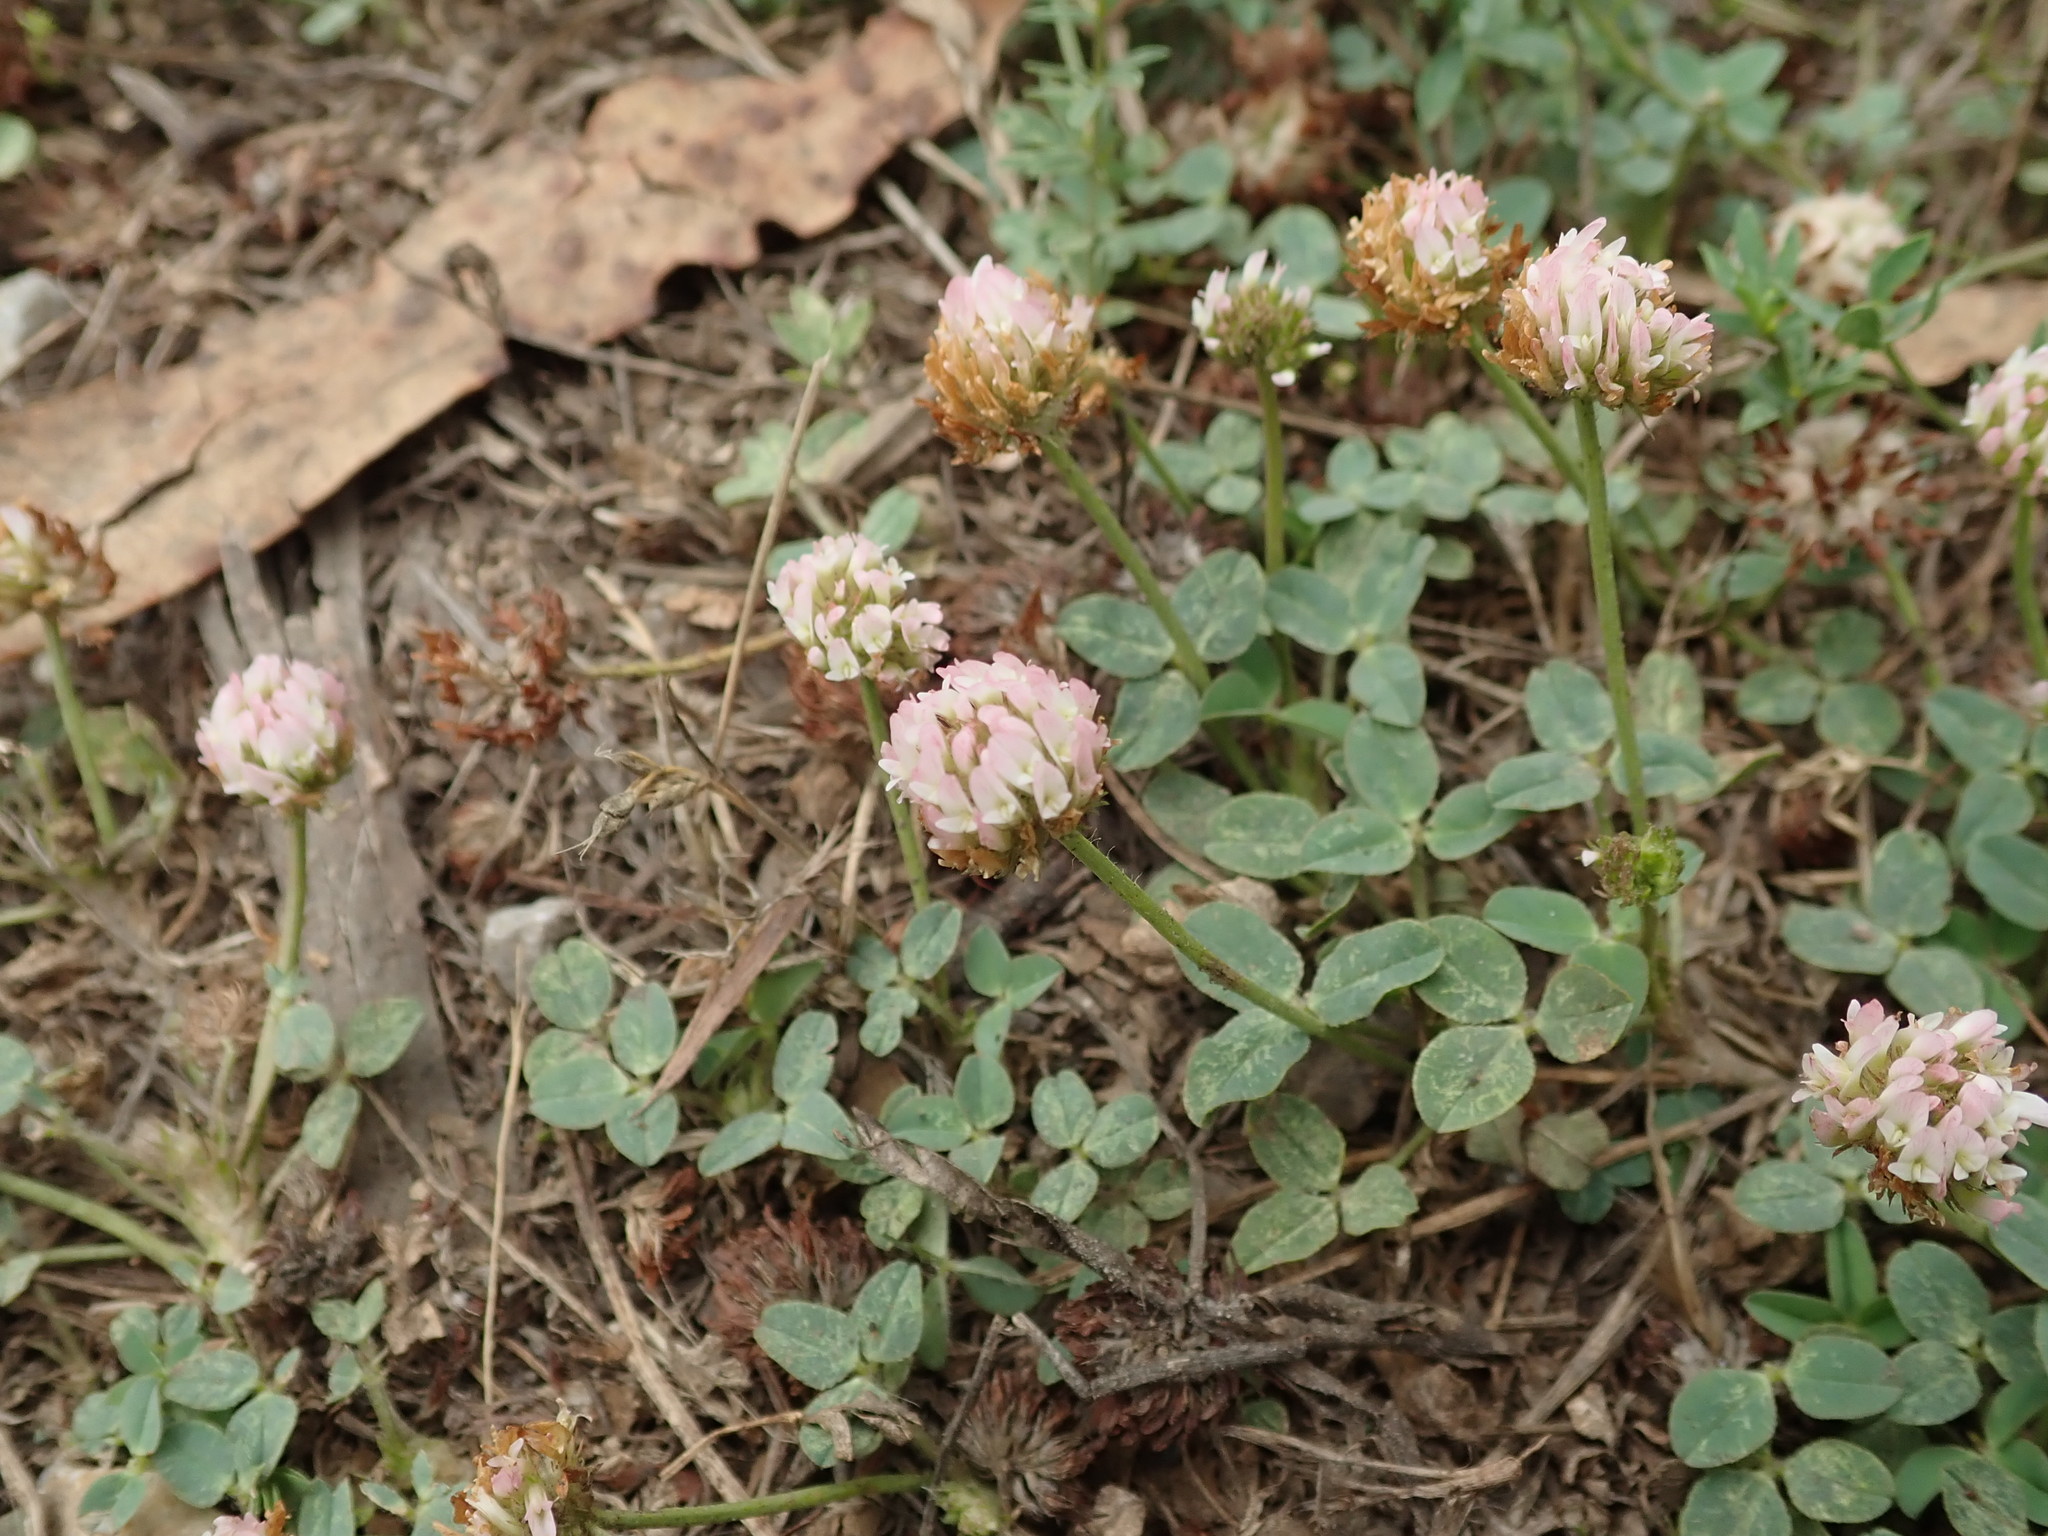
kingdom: Plantae
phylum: Tracheophyta
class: Magnoliopsida
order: Fabales
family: Fabaceae
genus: Trifolium
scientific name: Trifolium fragiferum
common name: Strawberry clover
